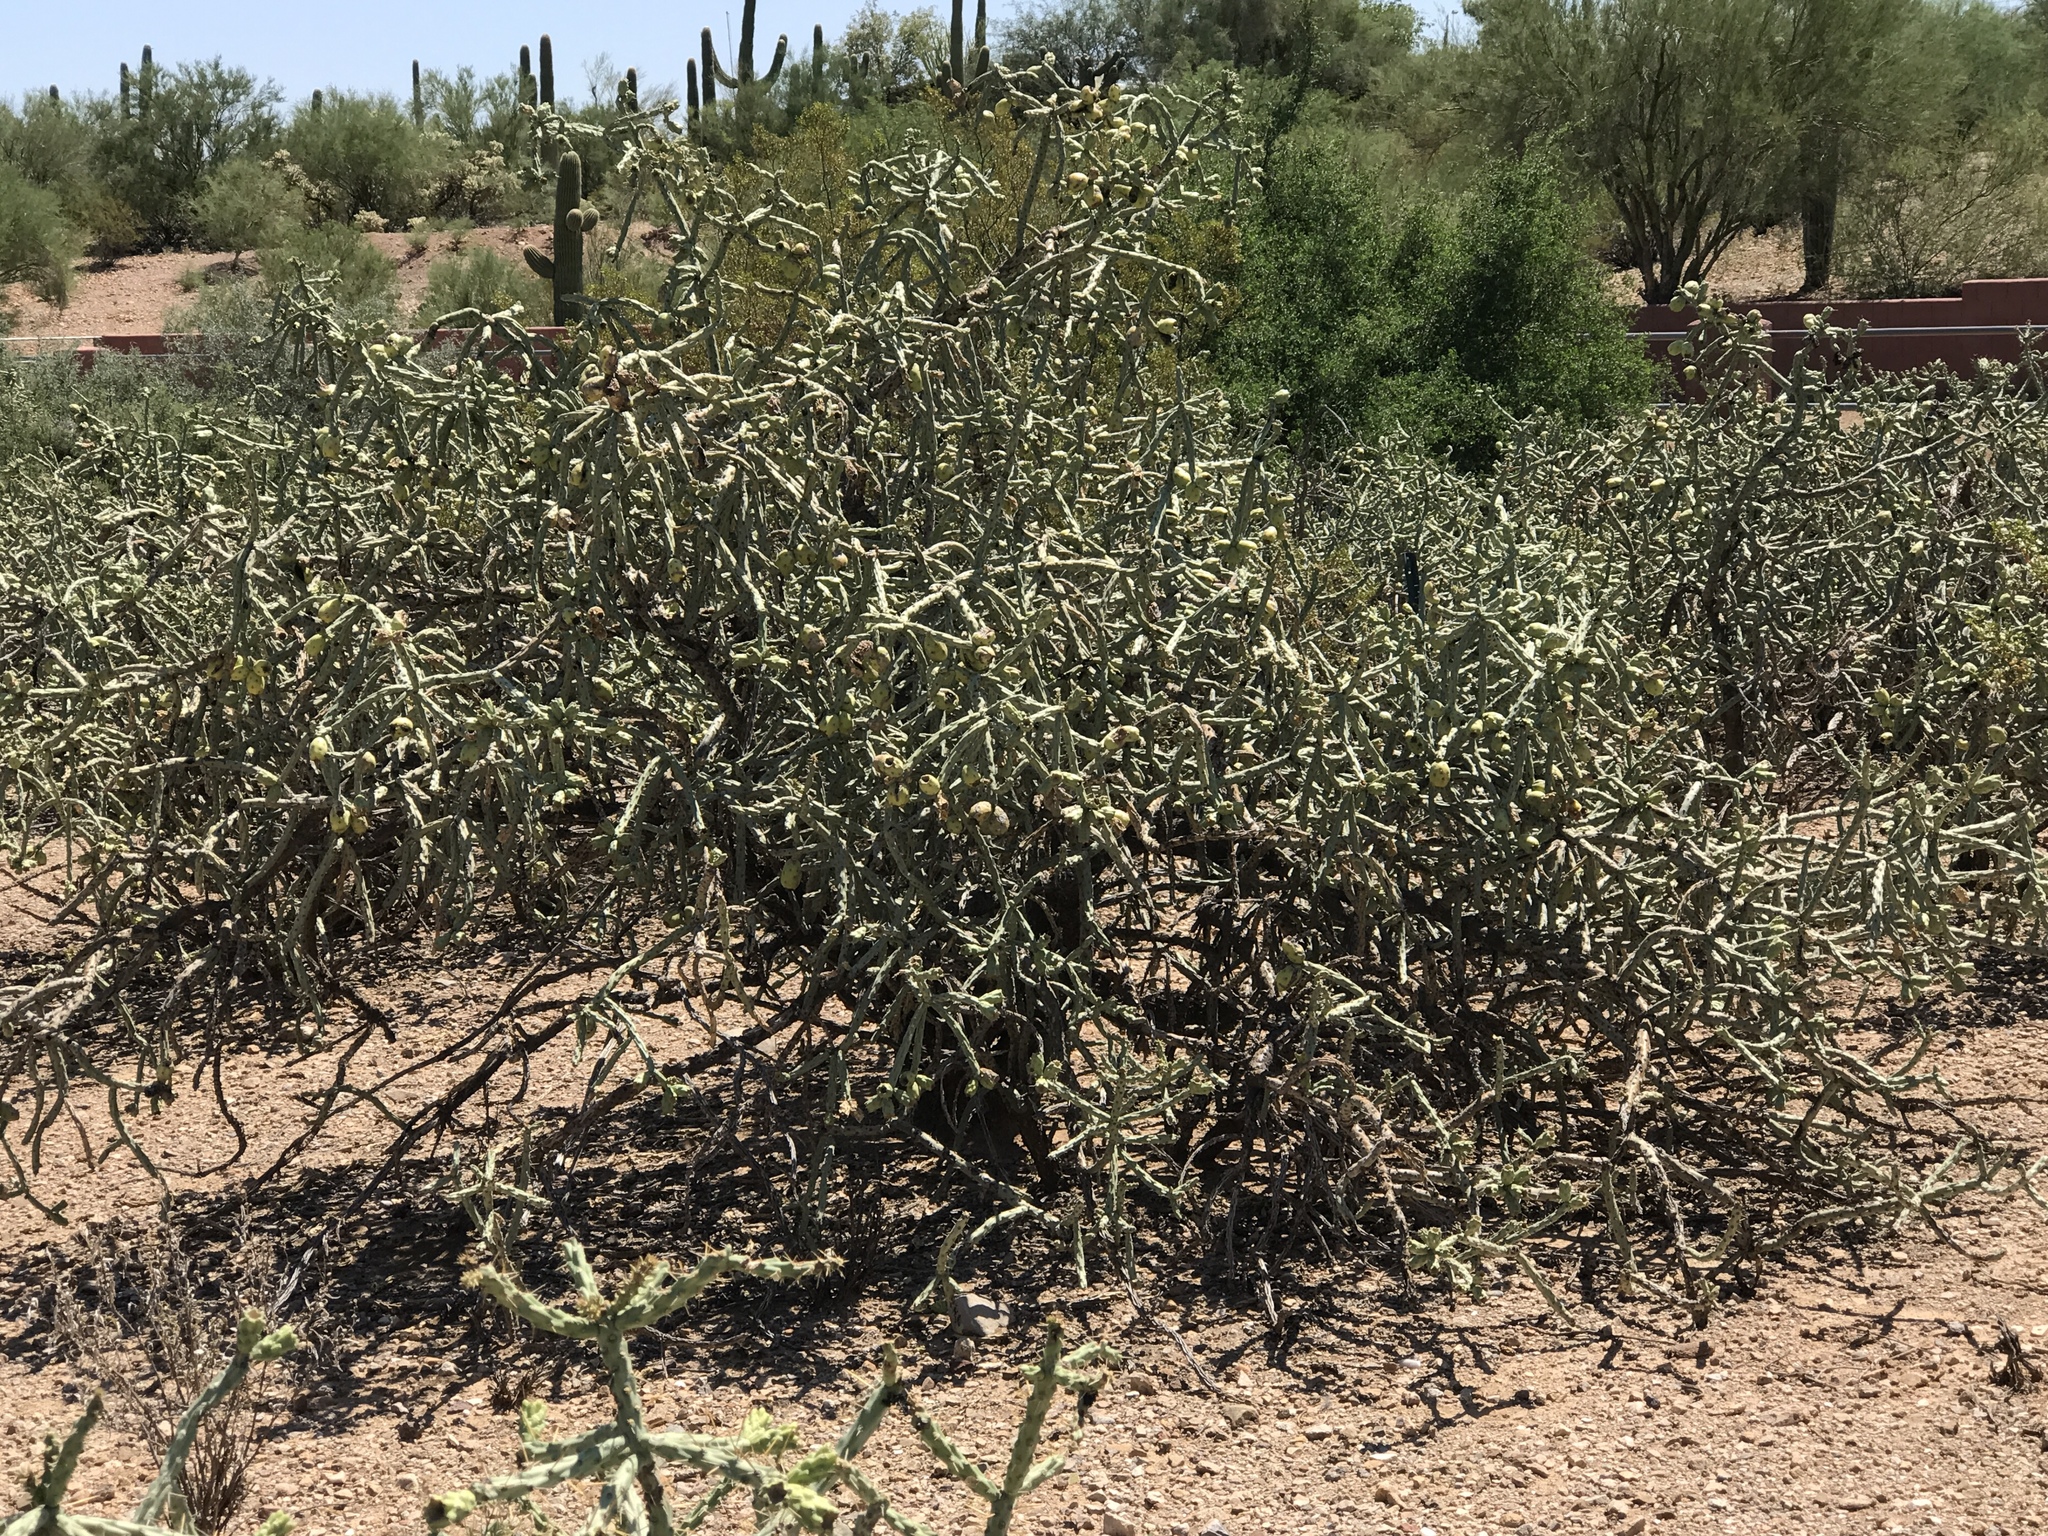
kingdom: Plantae
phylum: Tracheophyta
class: Magnoliopsida
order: Caryophyllales
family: Cactaceae
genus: Cylindropuntia
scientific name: Cylindropuntia arbuscula
